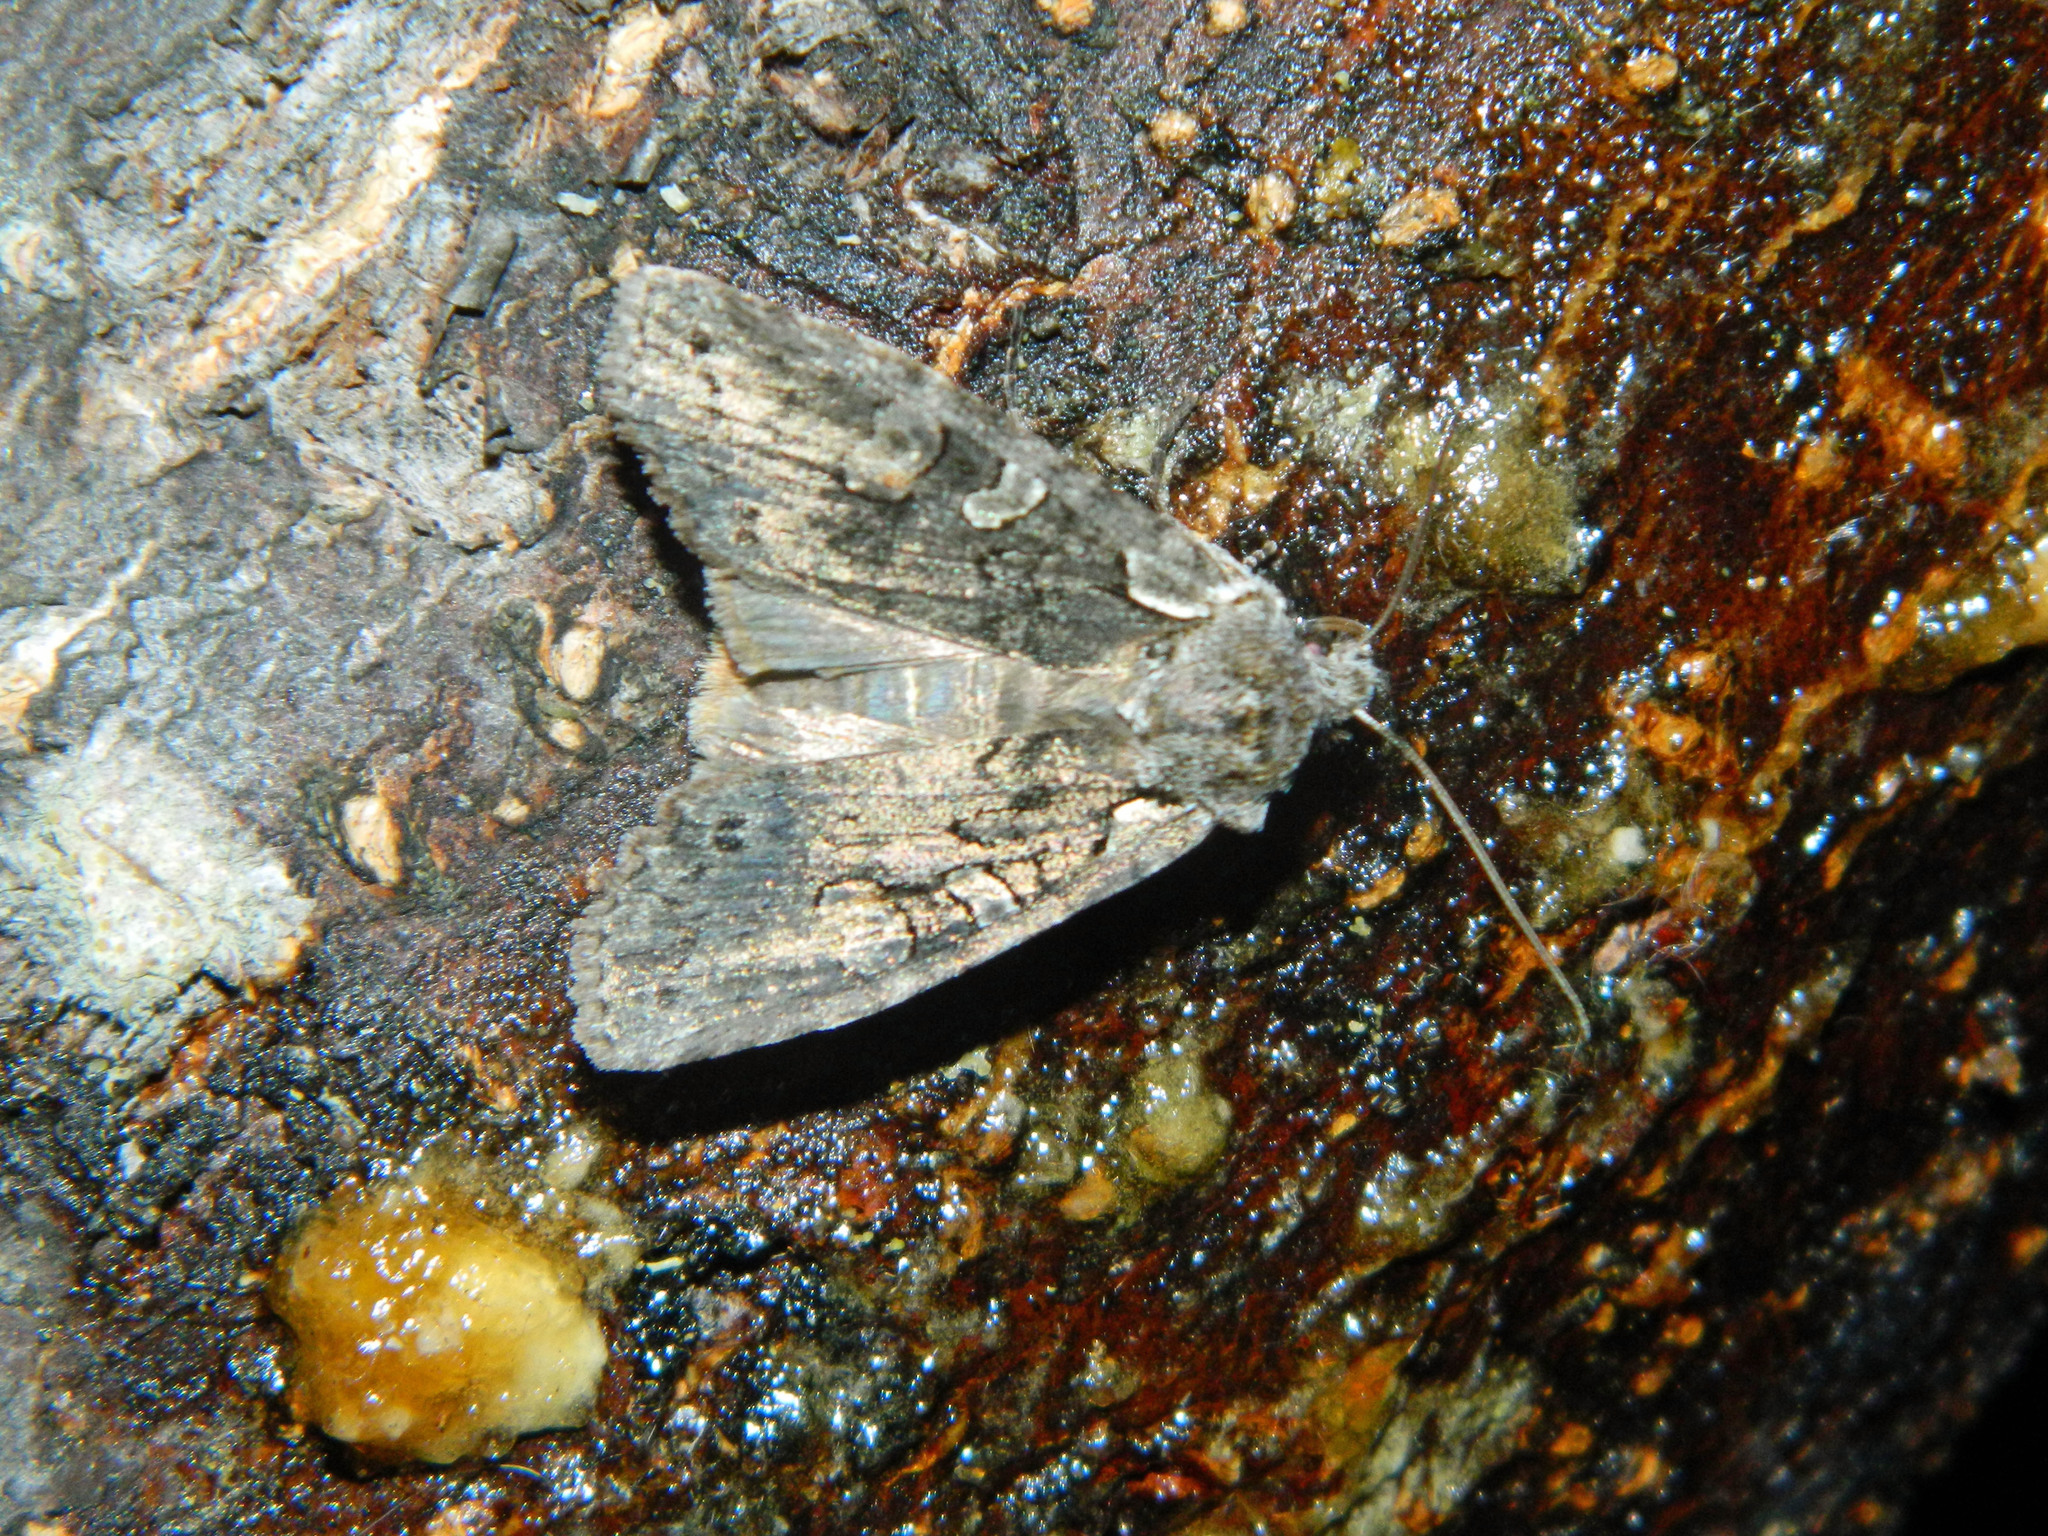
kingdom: Animalia
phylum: Arthropoda
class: Insecta
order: Lepidoptera
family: Noctuidae
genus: Lithophane
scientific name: Lithophane baileyi
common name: Bailey's pinion moth
